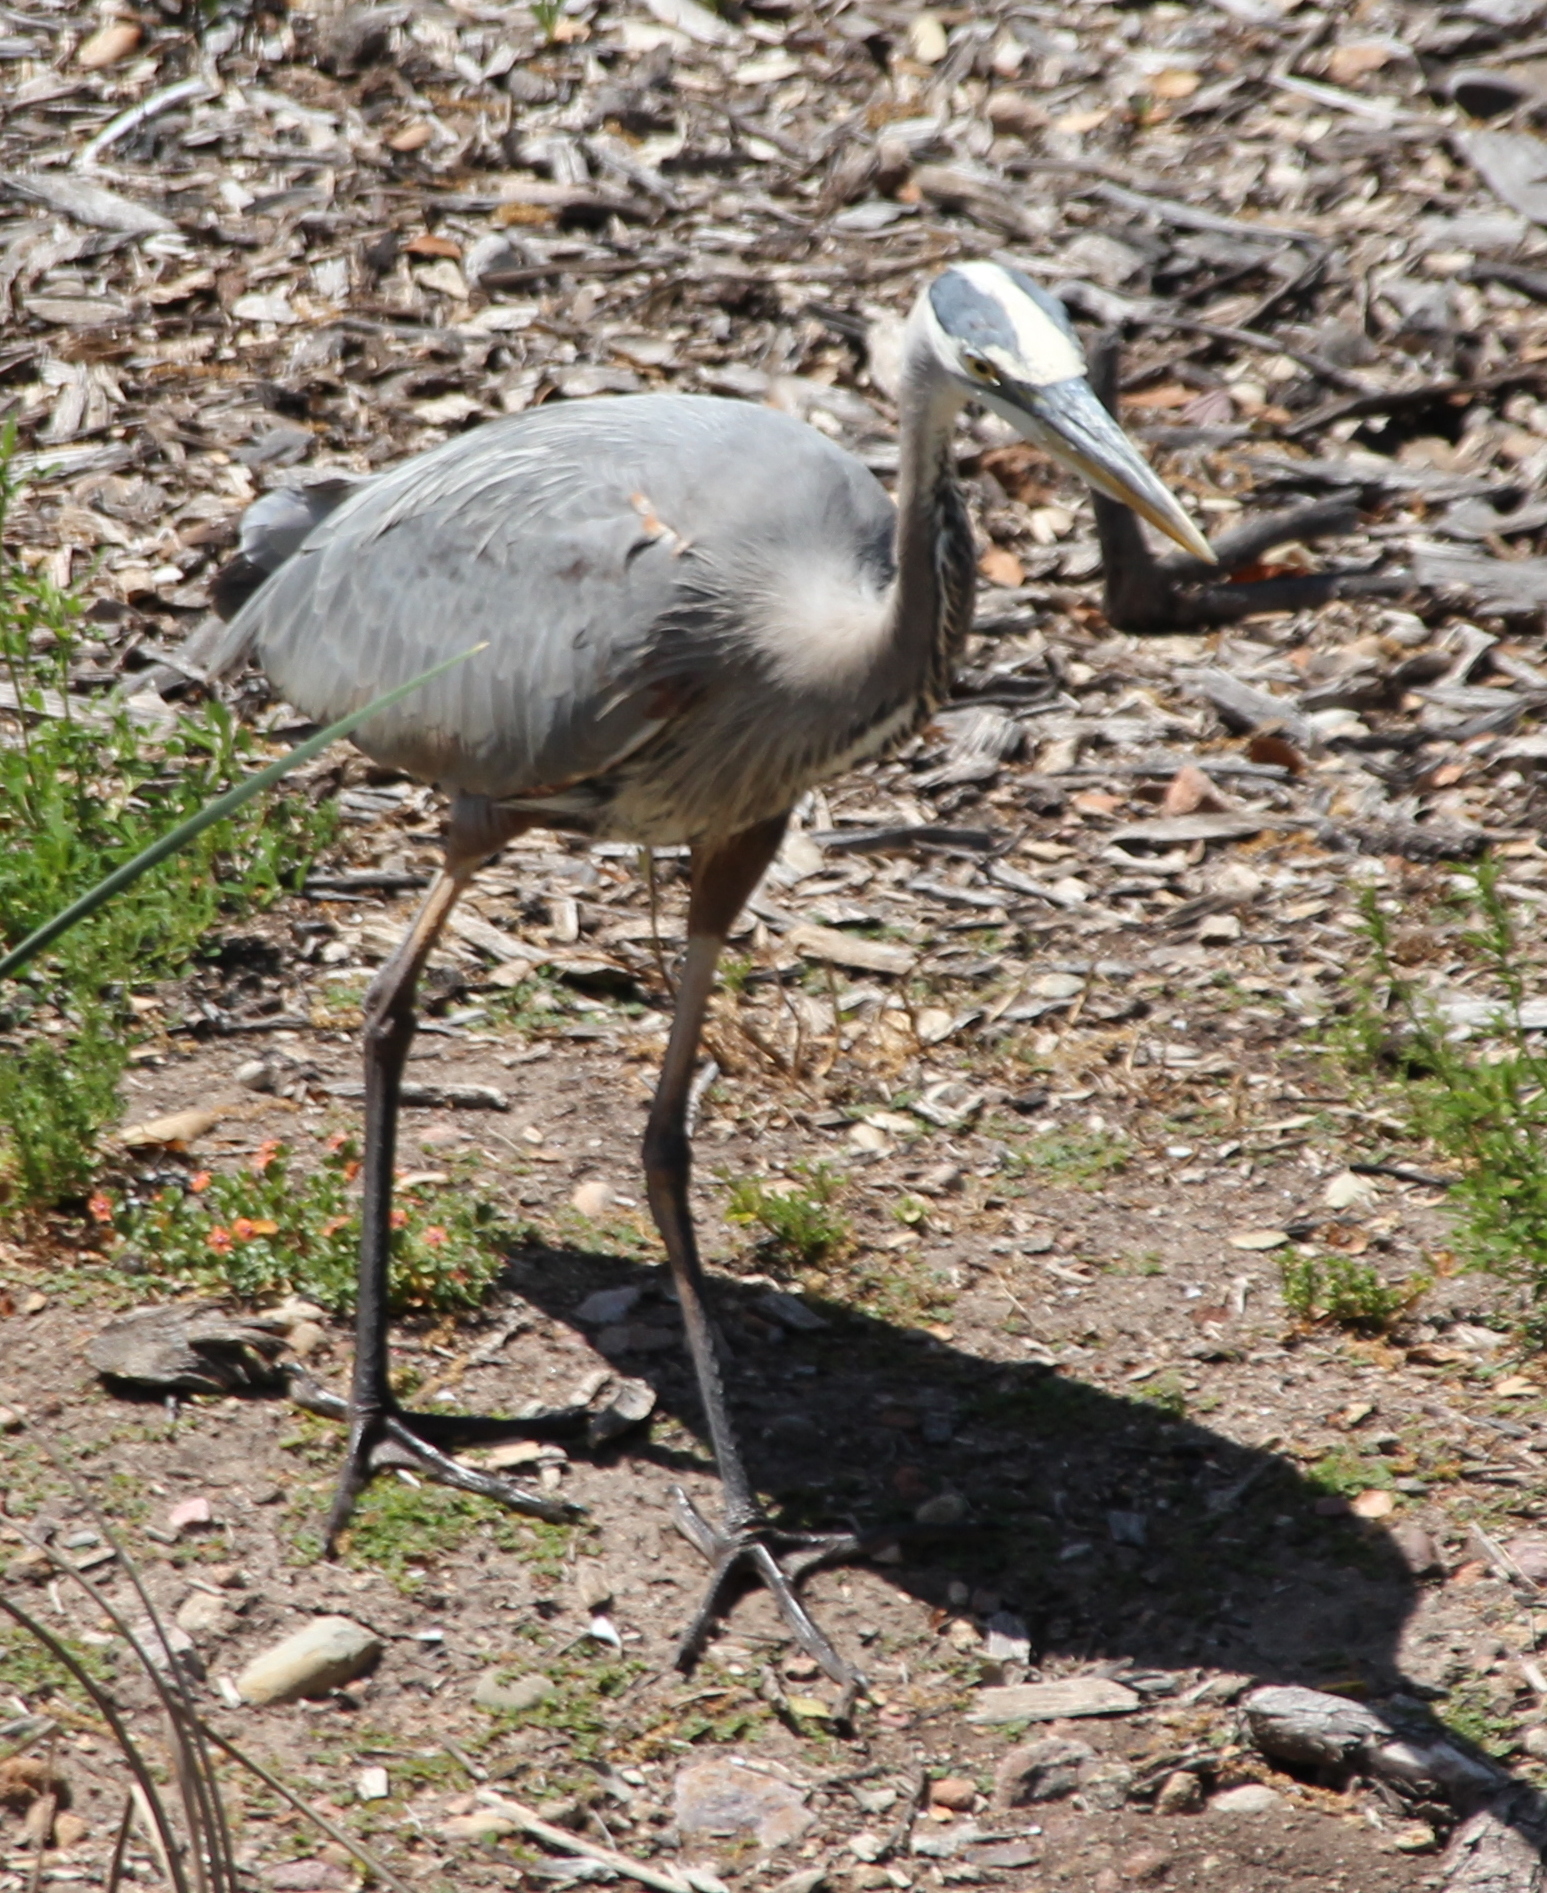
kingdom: Animalia
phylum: Chordata
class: Aves
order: Pelecaniformes
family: Ardeidae
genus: Ardea
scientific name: Ardea herodias
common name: Great blue heron
